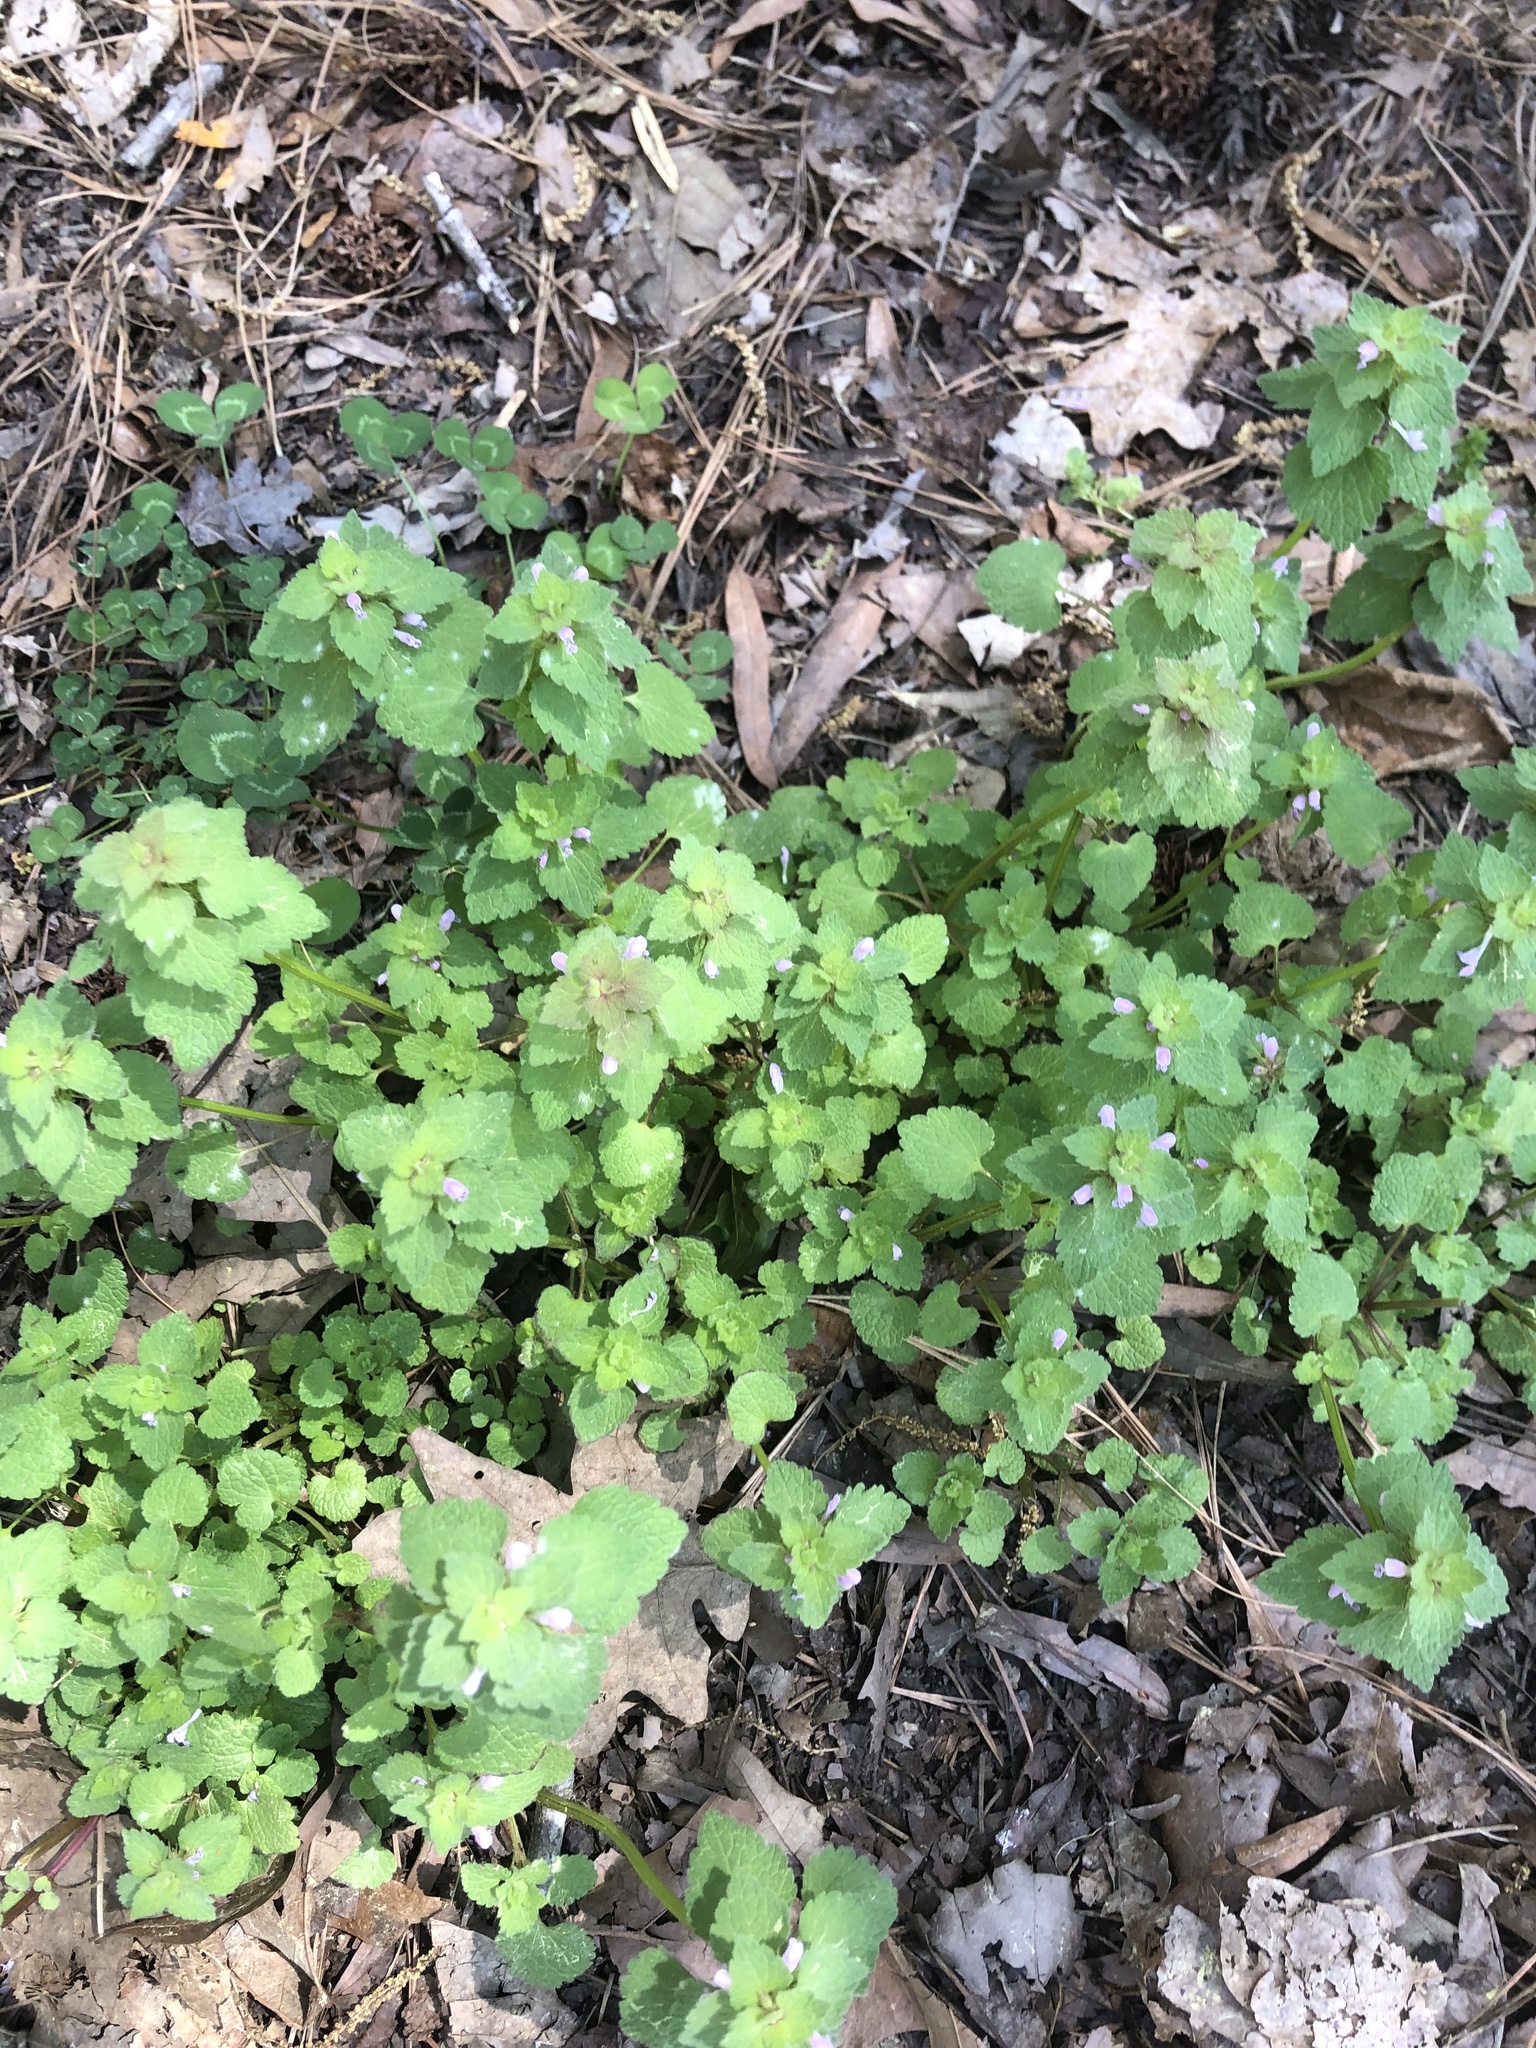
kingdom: Plantae
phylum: Tracheophyta
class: Magnoliopsida
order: Lamiales
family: Lamiaceae
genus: Lamium
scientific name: Lamium purpureum
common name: Red dead-nettle
